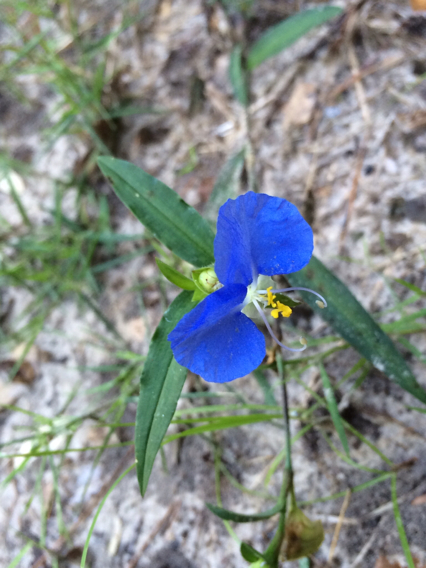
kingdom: Plantae
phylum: Tracheophyta
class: Liliopsida
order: Commelinales
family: Commelinaceae
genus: Commelina
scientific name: Commelina erecta
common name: Blousel blommetjie
